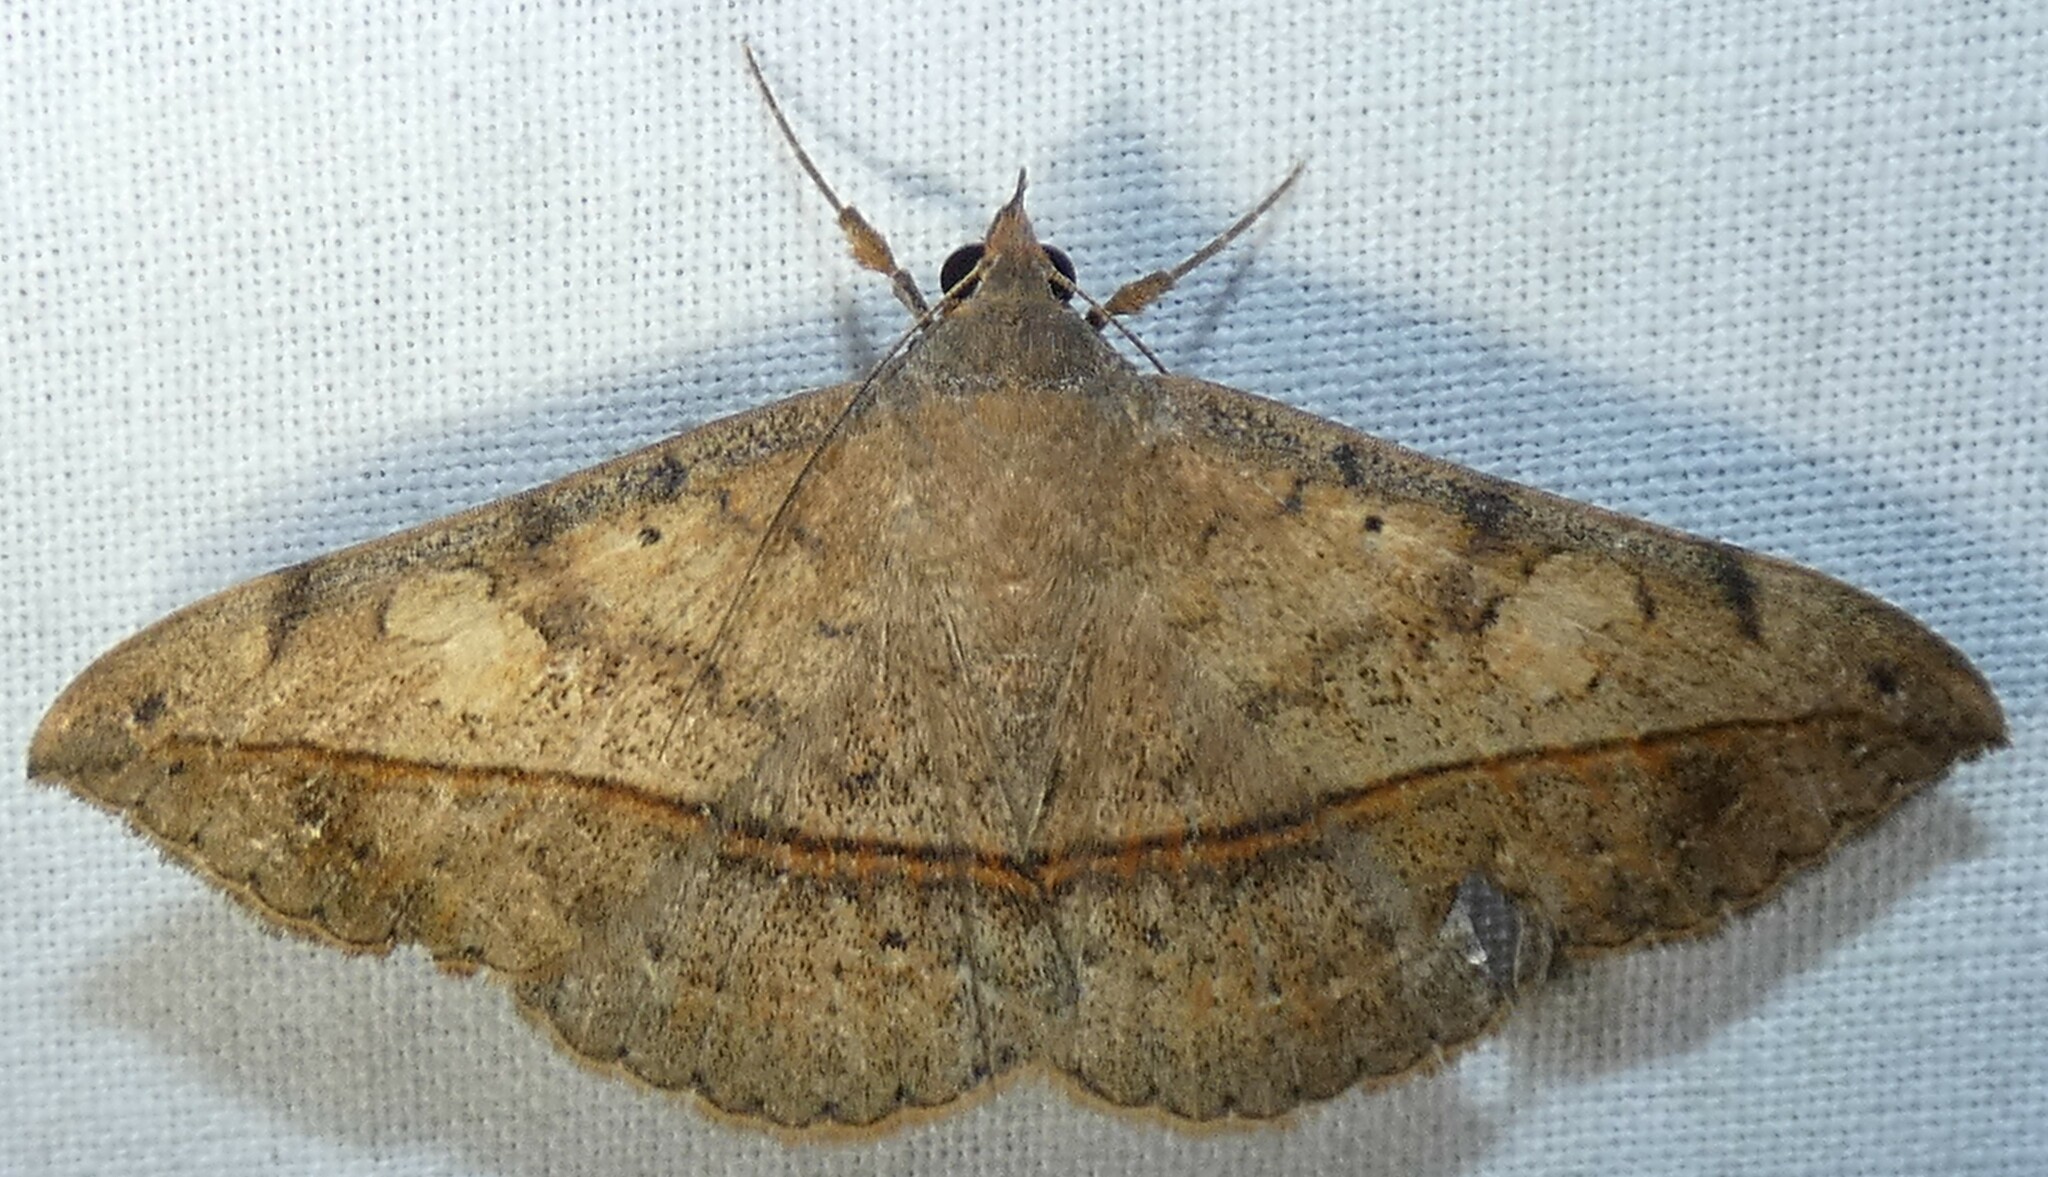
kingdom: Animalia
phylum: Arthropoda
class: Insecta
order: Lepidoptera
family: Erebidae
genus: Anticarsia
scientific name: Anticarsia gemmatalis
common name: Cutworm moth
